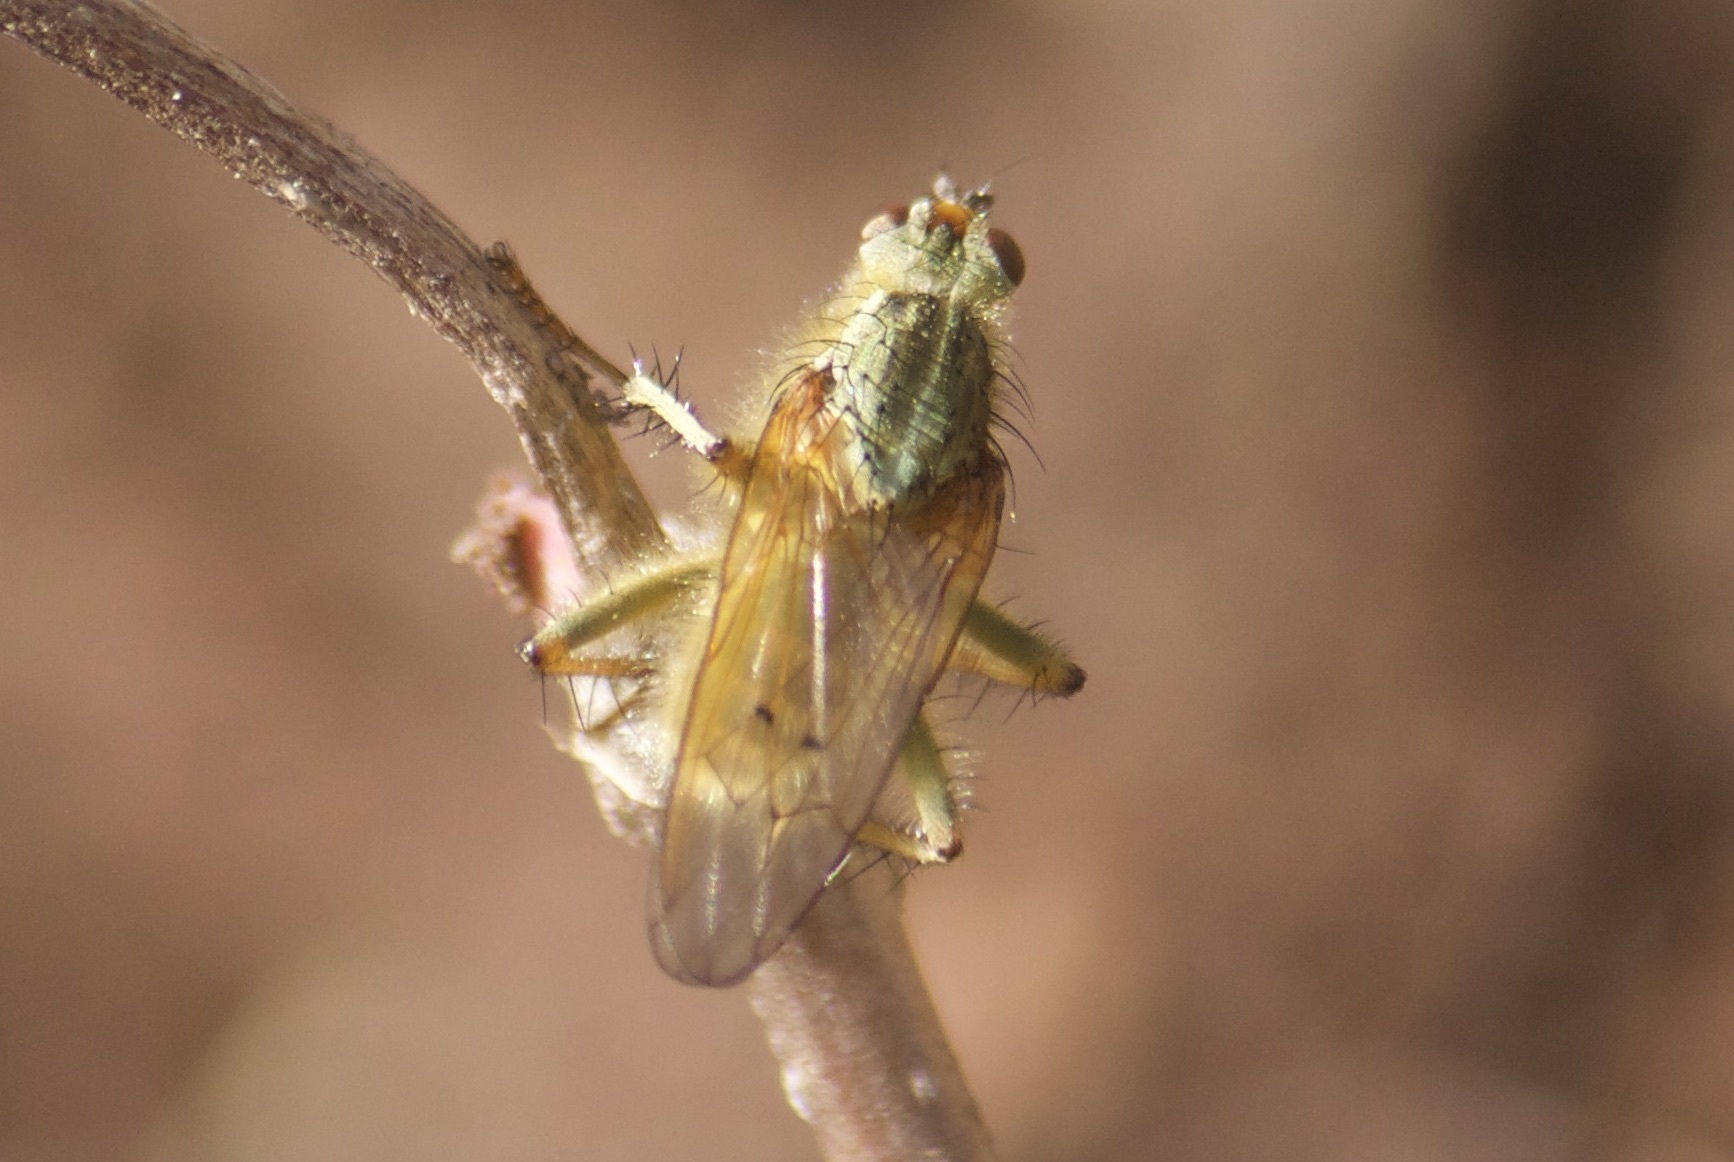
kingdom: Animalia
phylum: Arthropoda
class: Insecta
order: Diptera
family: Scathophagidae
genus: Scathophaga
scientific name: Scathophaga stercoraria
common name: Yellow dung fly
